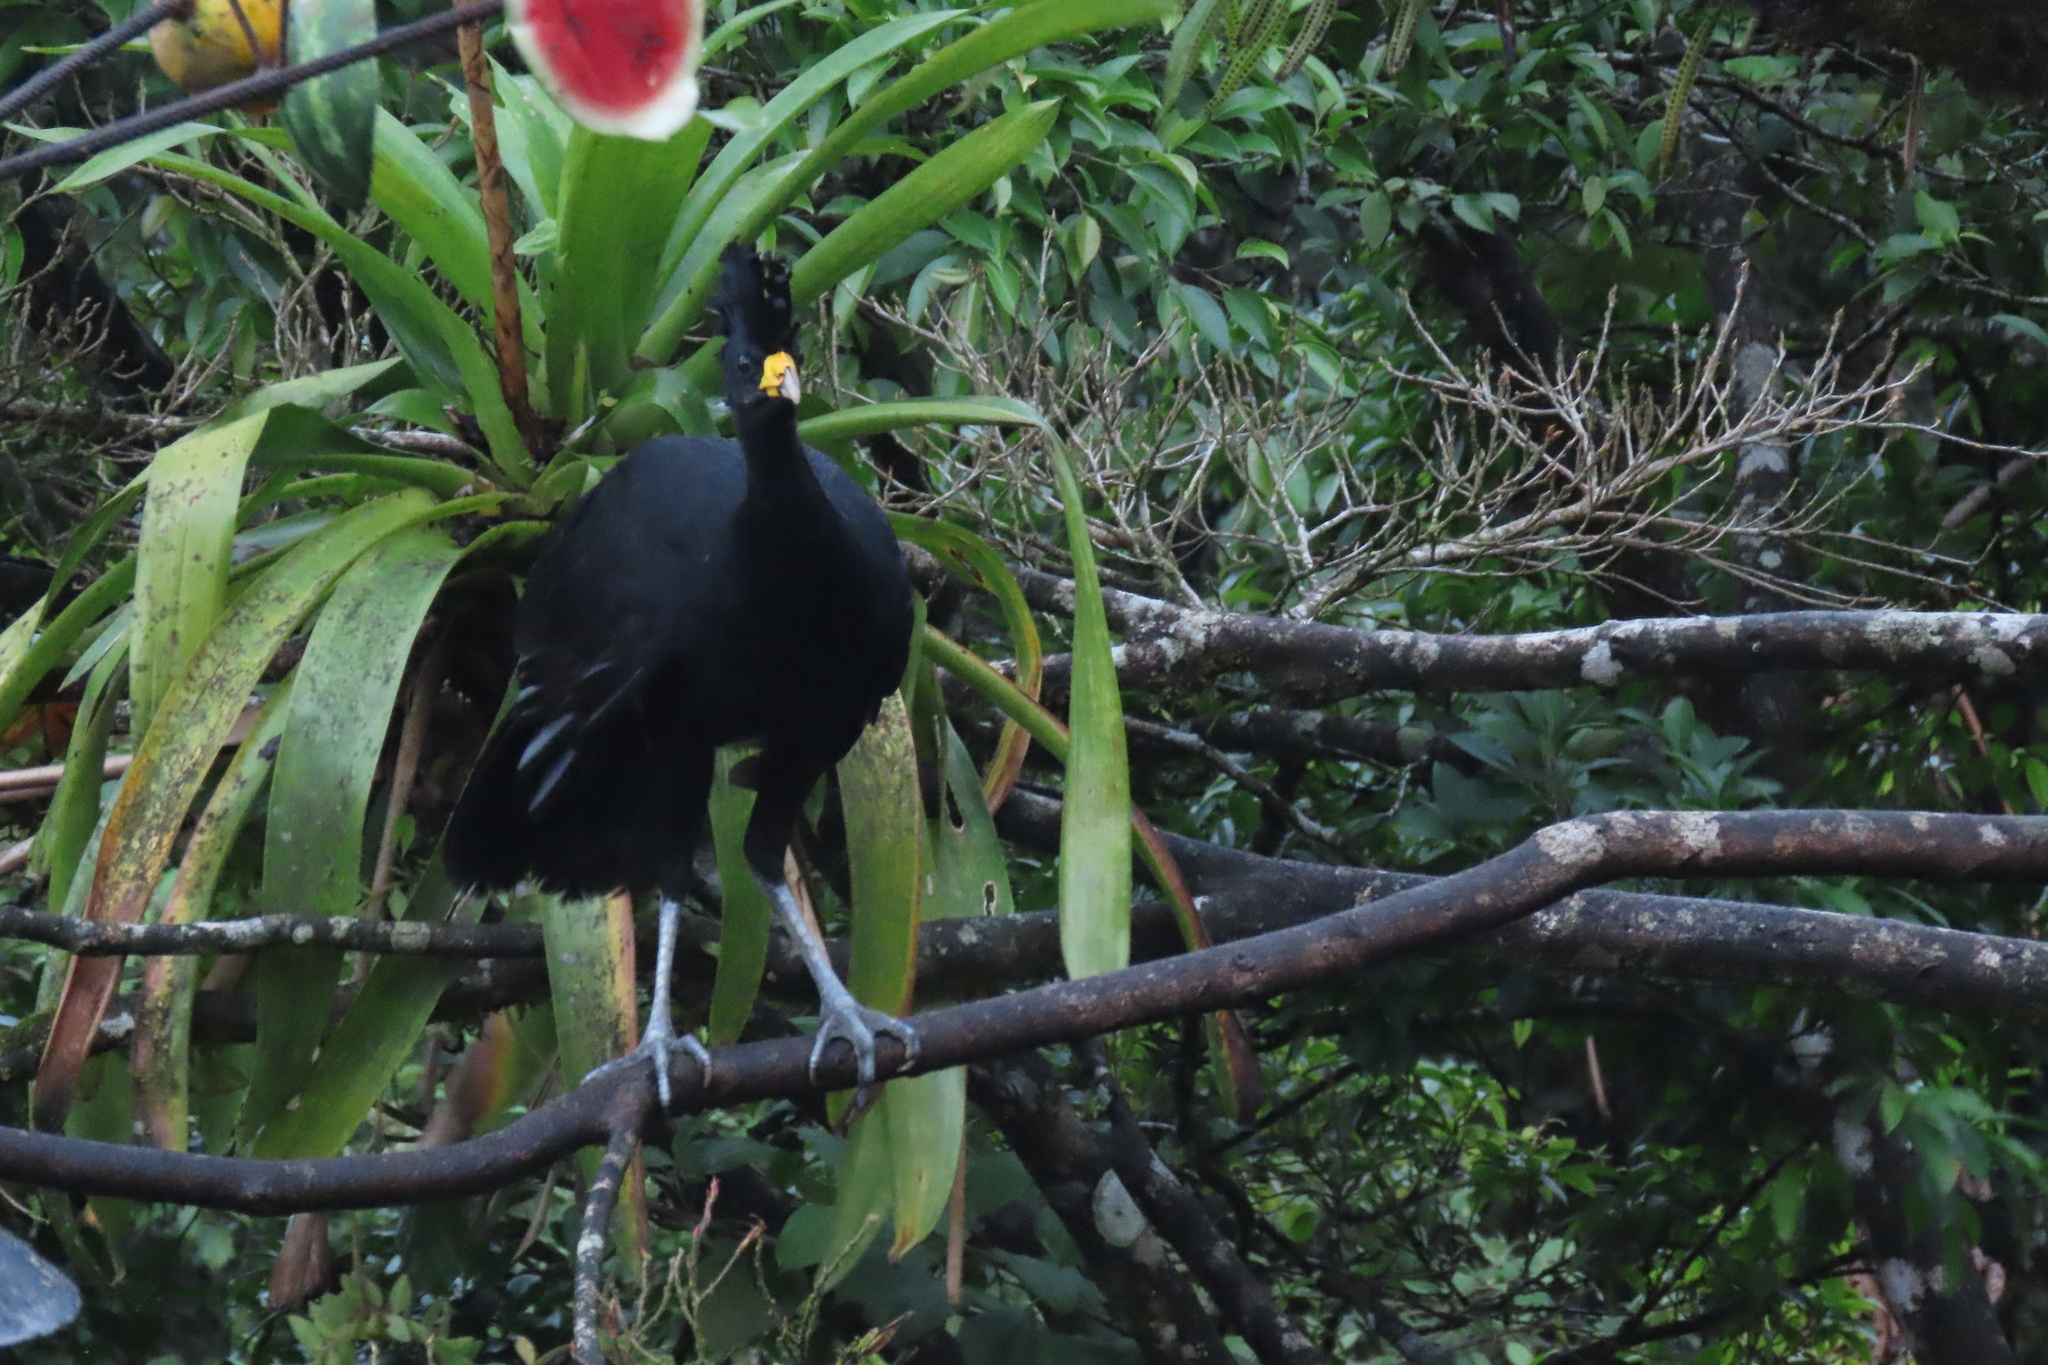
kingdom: Animalia
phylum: Chordata
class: Aves
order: Galliformes
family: Cracidae
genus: Crax
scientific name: Crax rubra
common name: Great curassow
